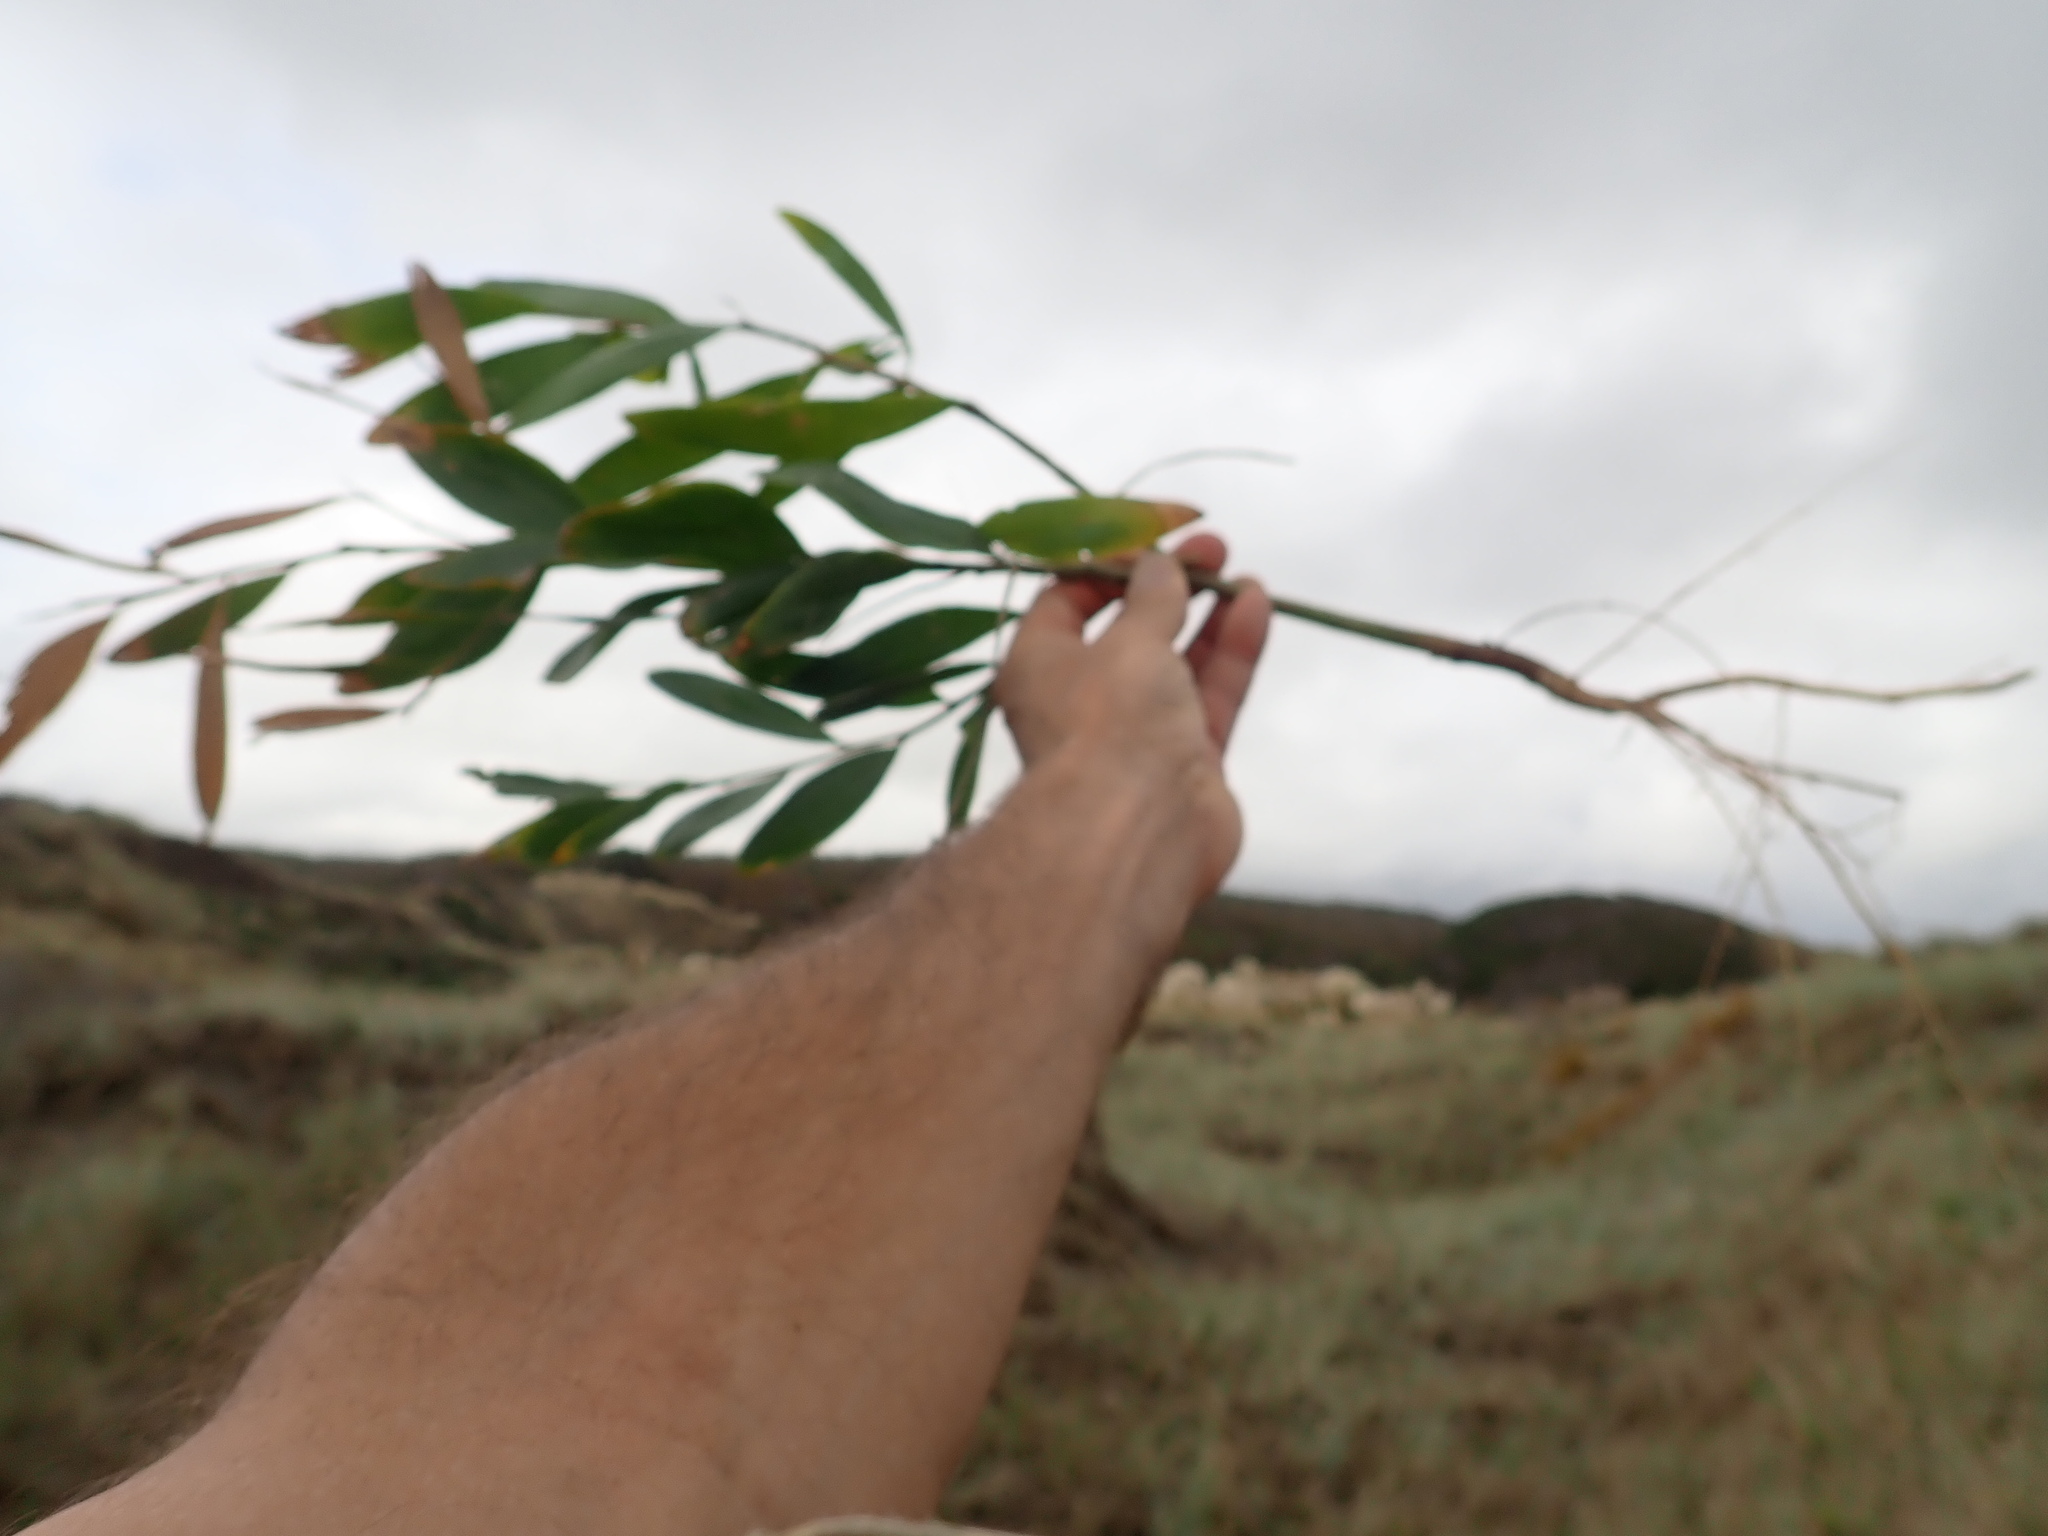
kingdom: Plantae
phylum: Tracheophyta
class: Magnoliopsida
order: Fabales
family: Fabaceae
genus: Acacia
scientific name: Acacia longifolia
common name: Sydney golden wattle
